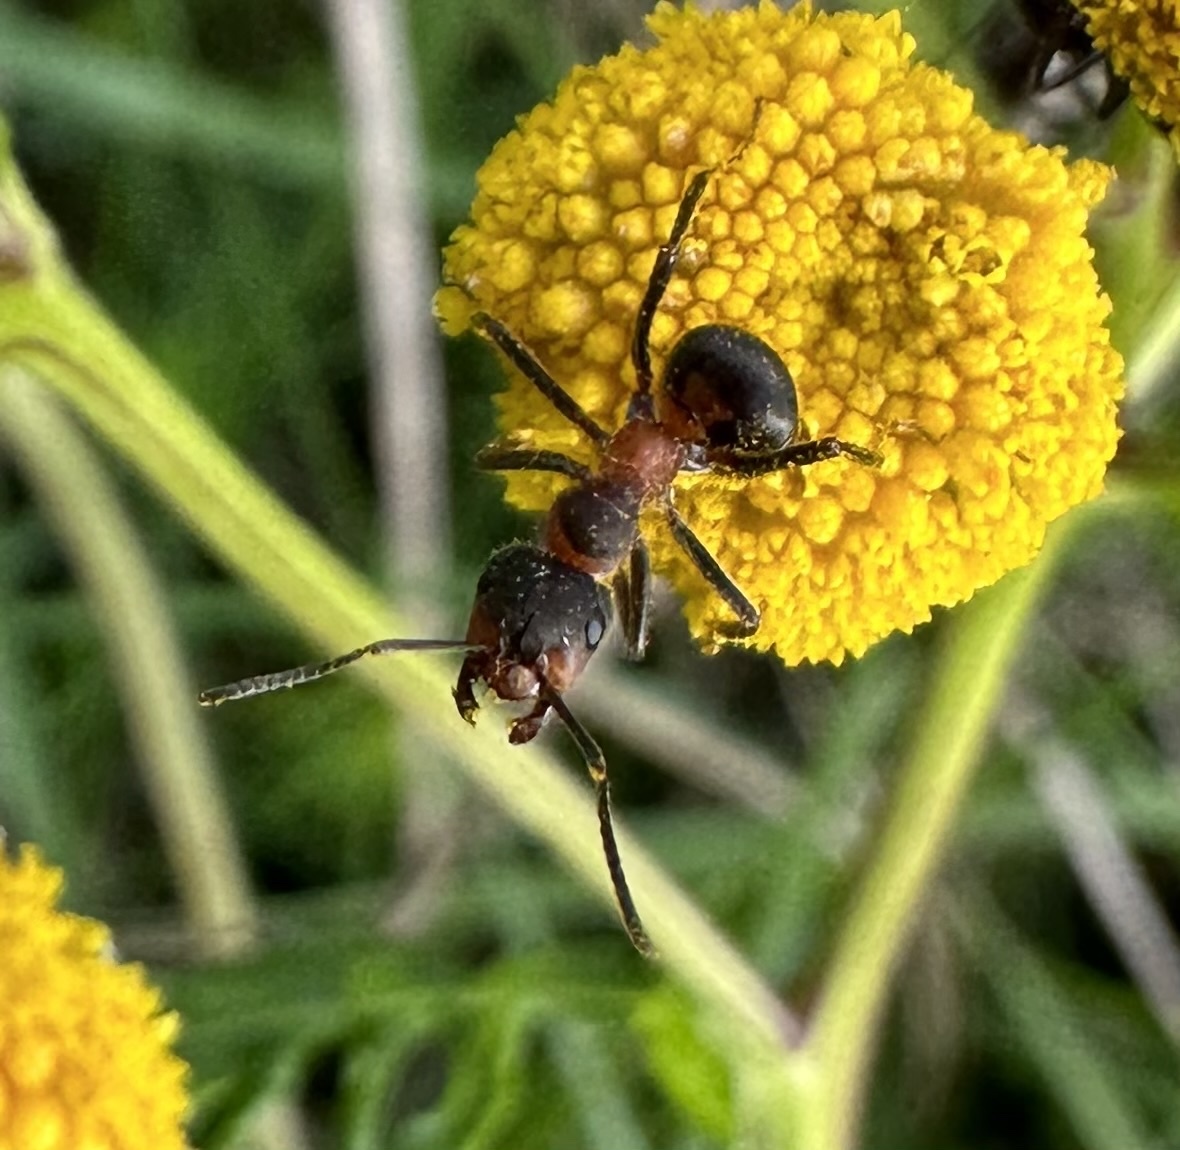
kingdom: Animalia
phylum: Arthropoda
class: Insecta
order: Hymenoptera
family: Formicidae
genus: Formica
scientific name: Formica pratensis
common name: European red wood ant
